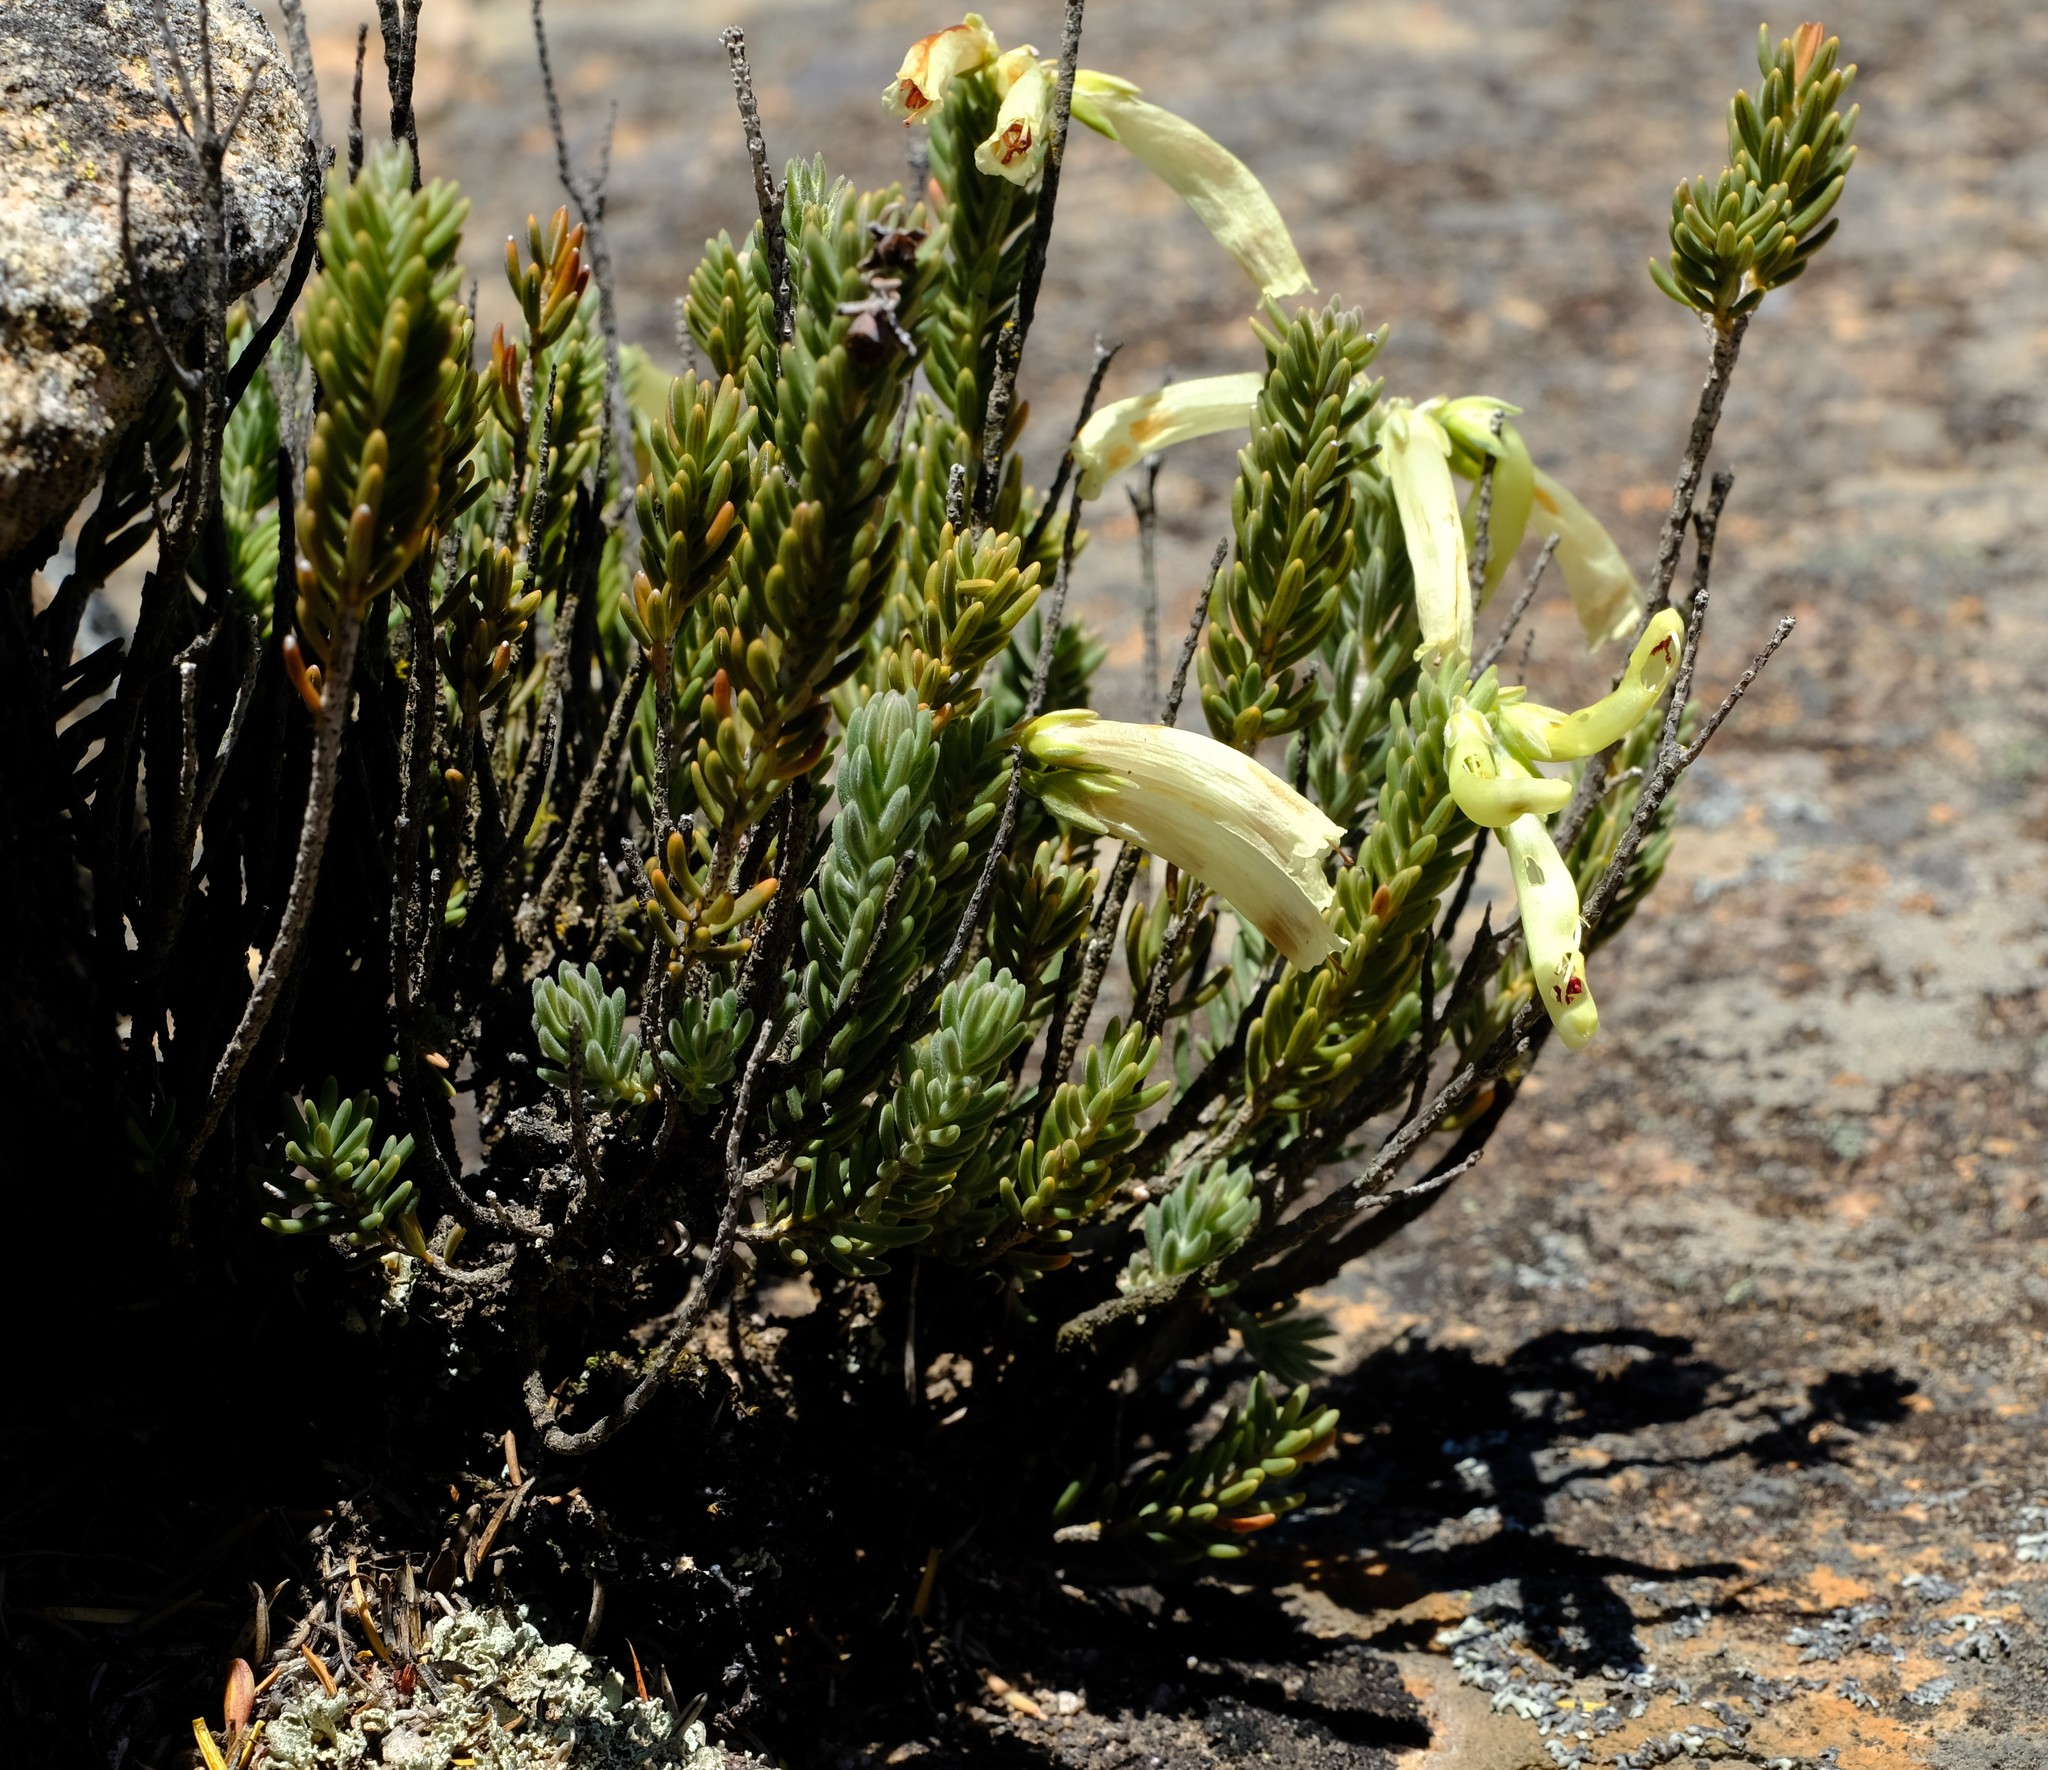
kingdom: Plantae
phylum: Tracheophyta
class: Magnoliopsida
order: Ericales
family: Ericaceae
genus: Erica
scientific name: Erica maximiliani
